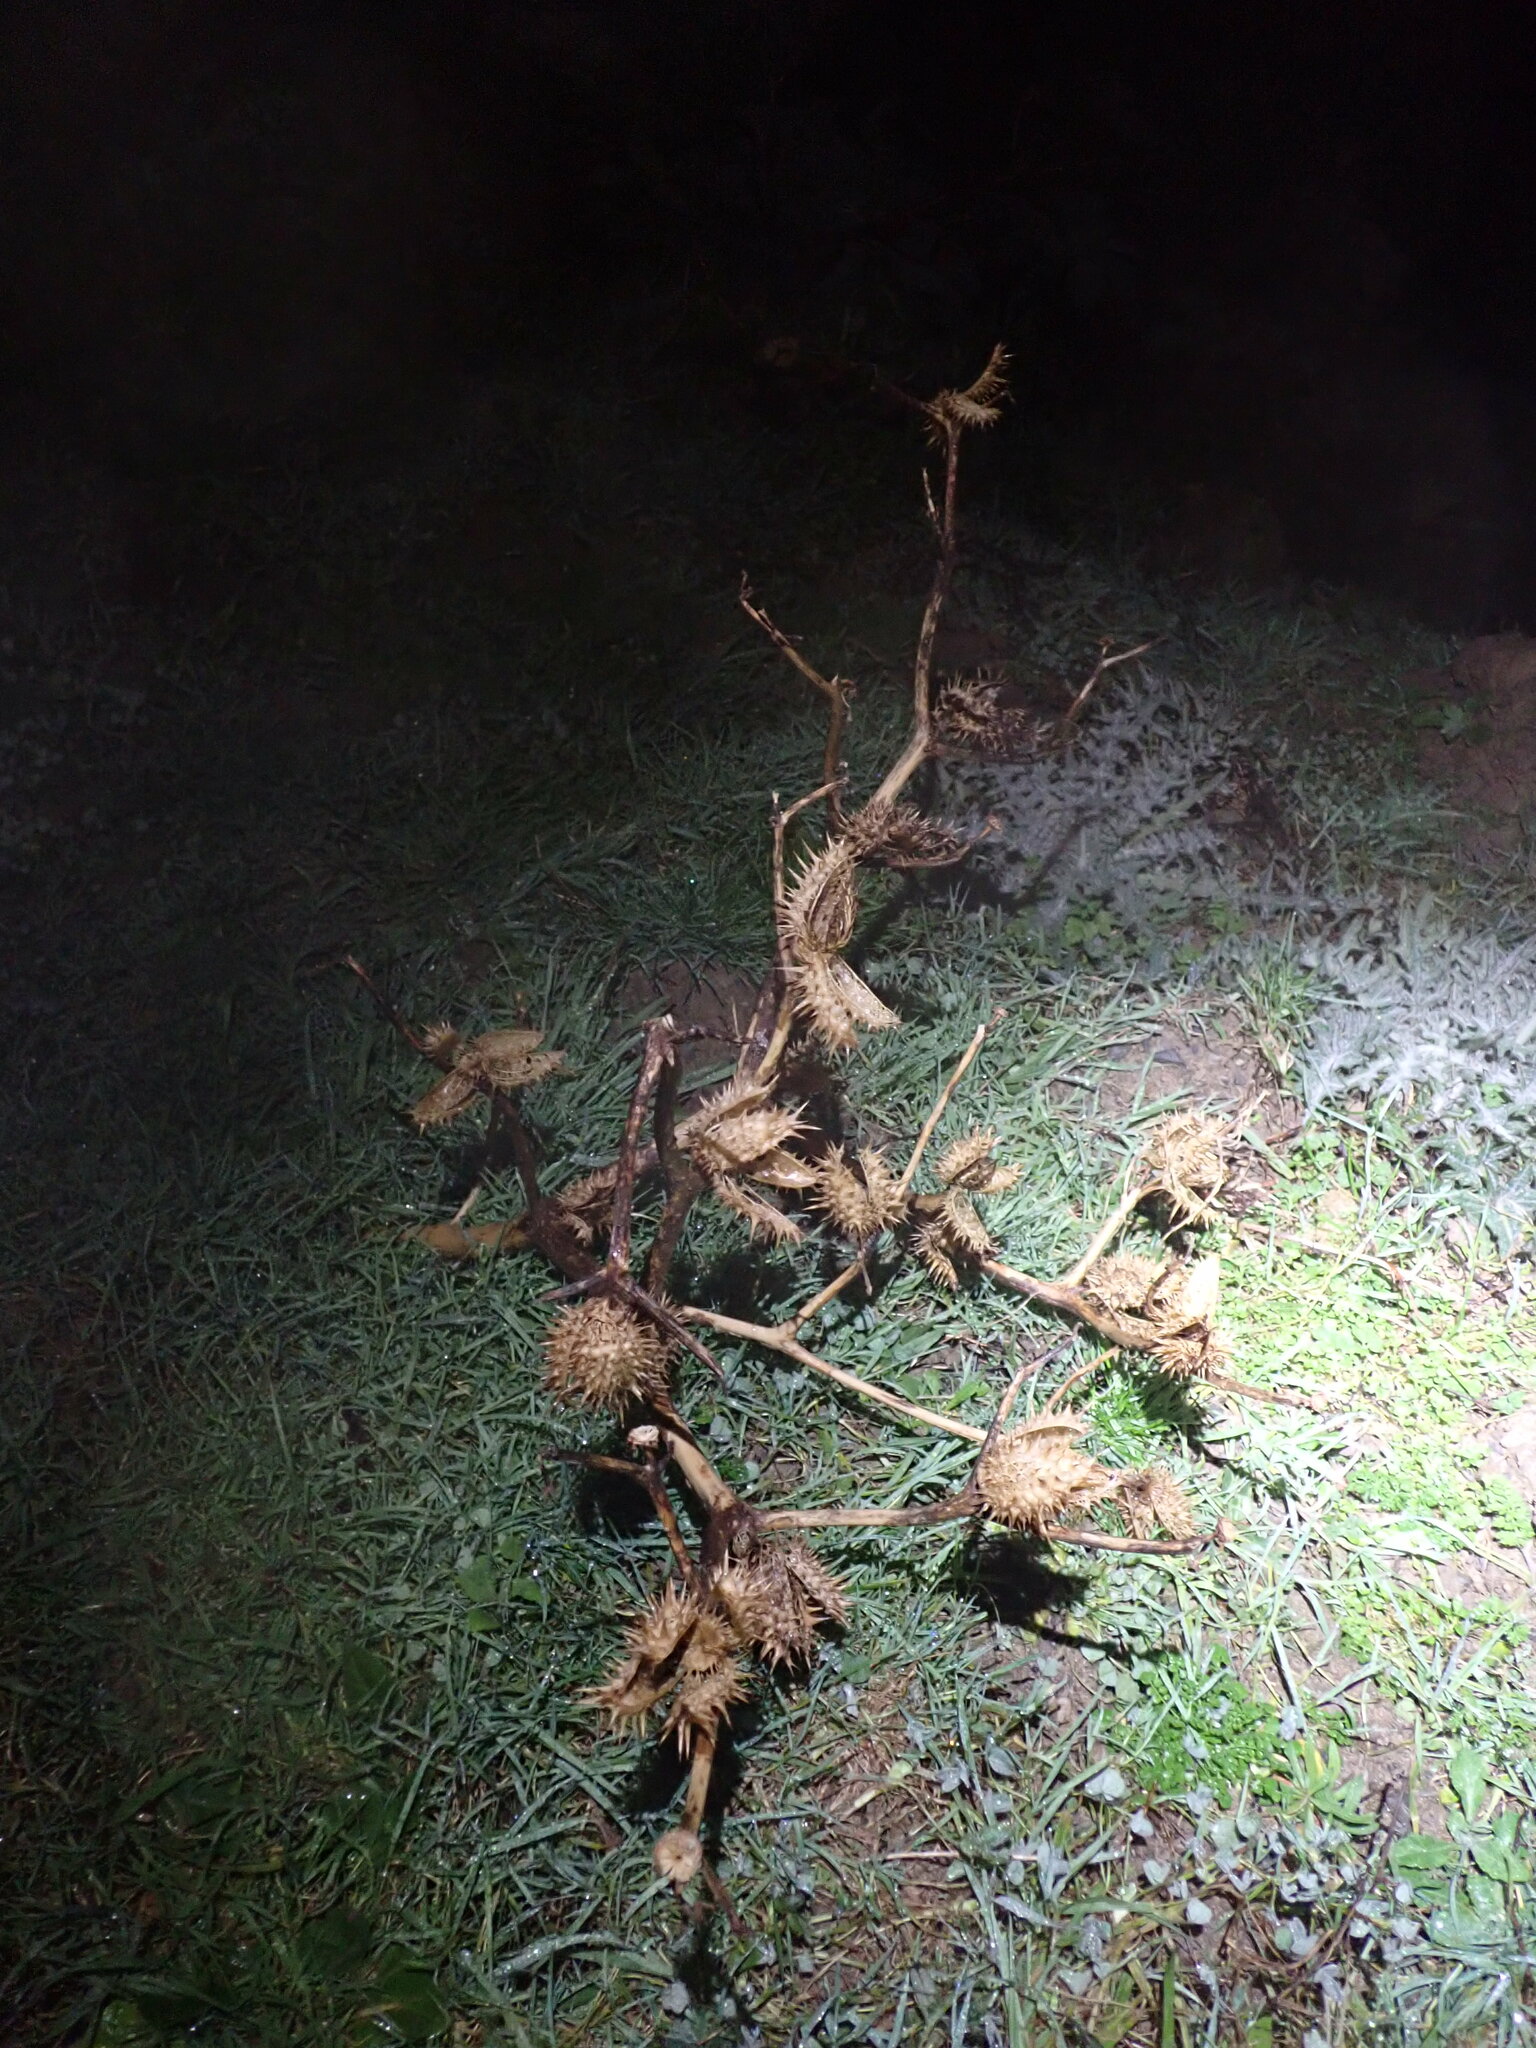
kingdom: Plantae
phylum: Tracheophyta
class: Magnoliopsida
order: Solanales
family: Solanaceae
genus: Datura
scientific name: Datura stramonium
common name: Thorn-apple
